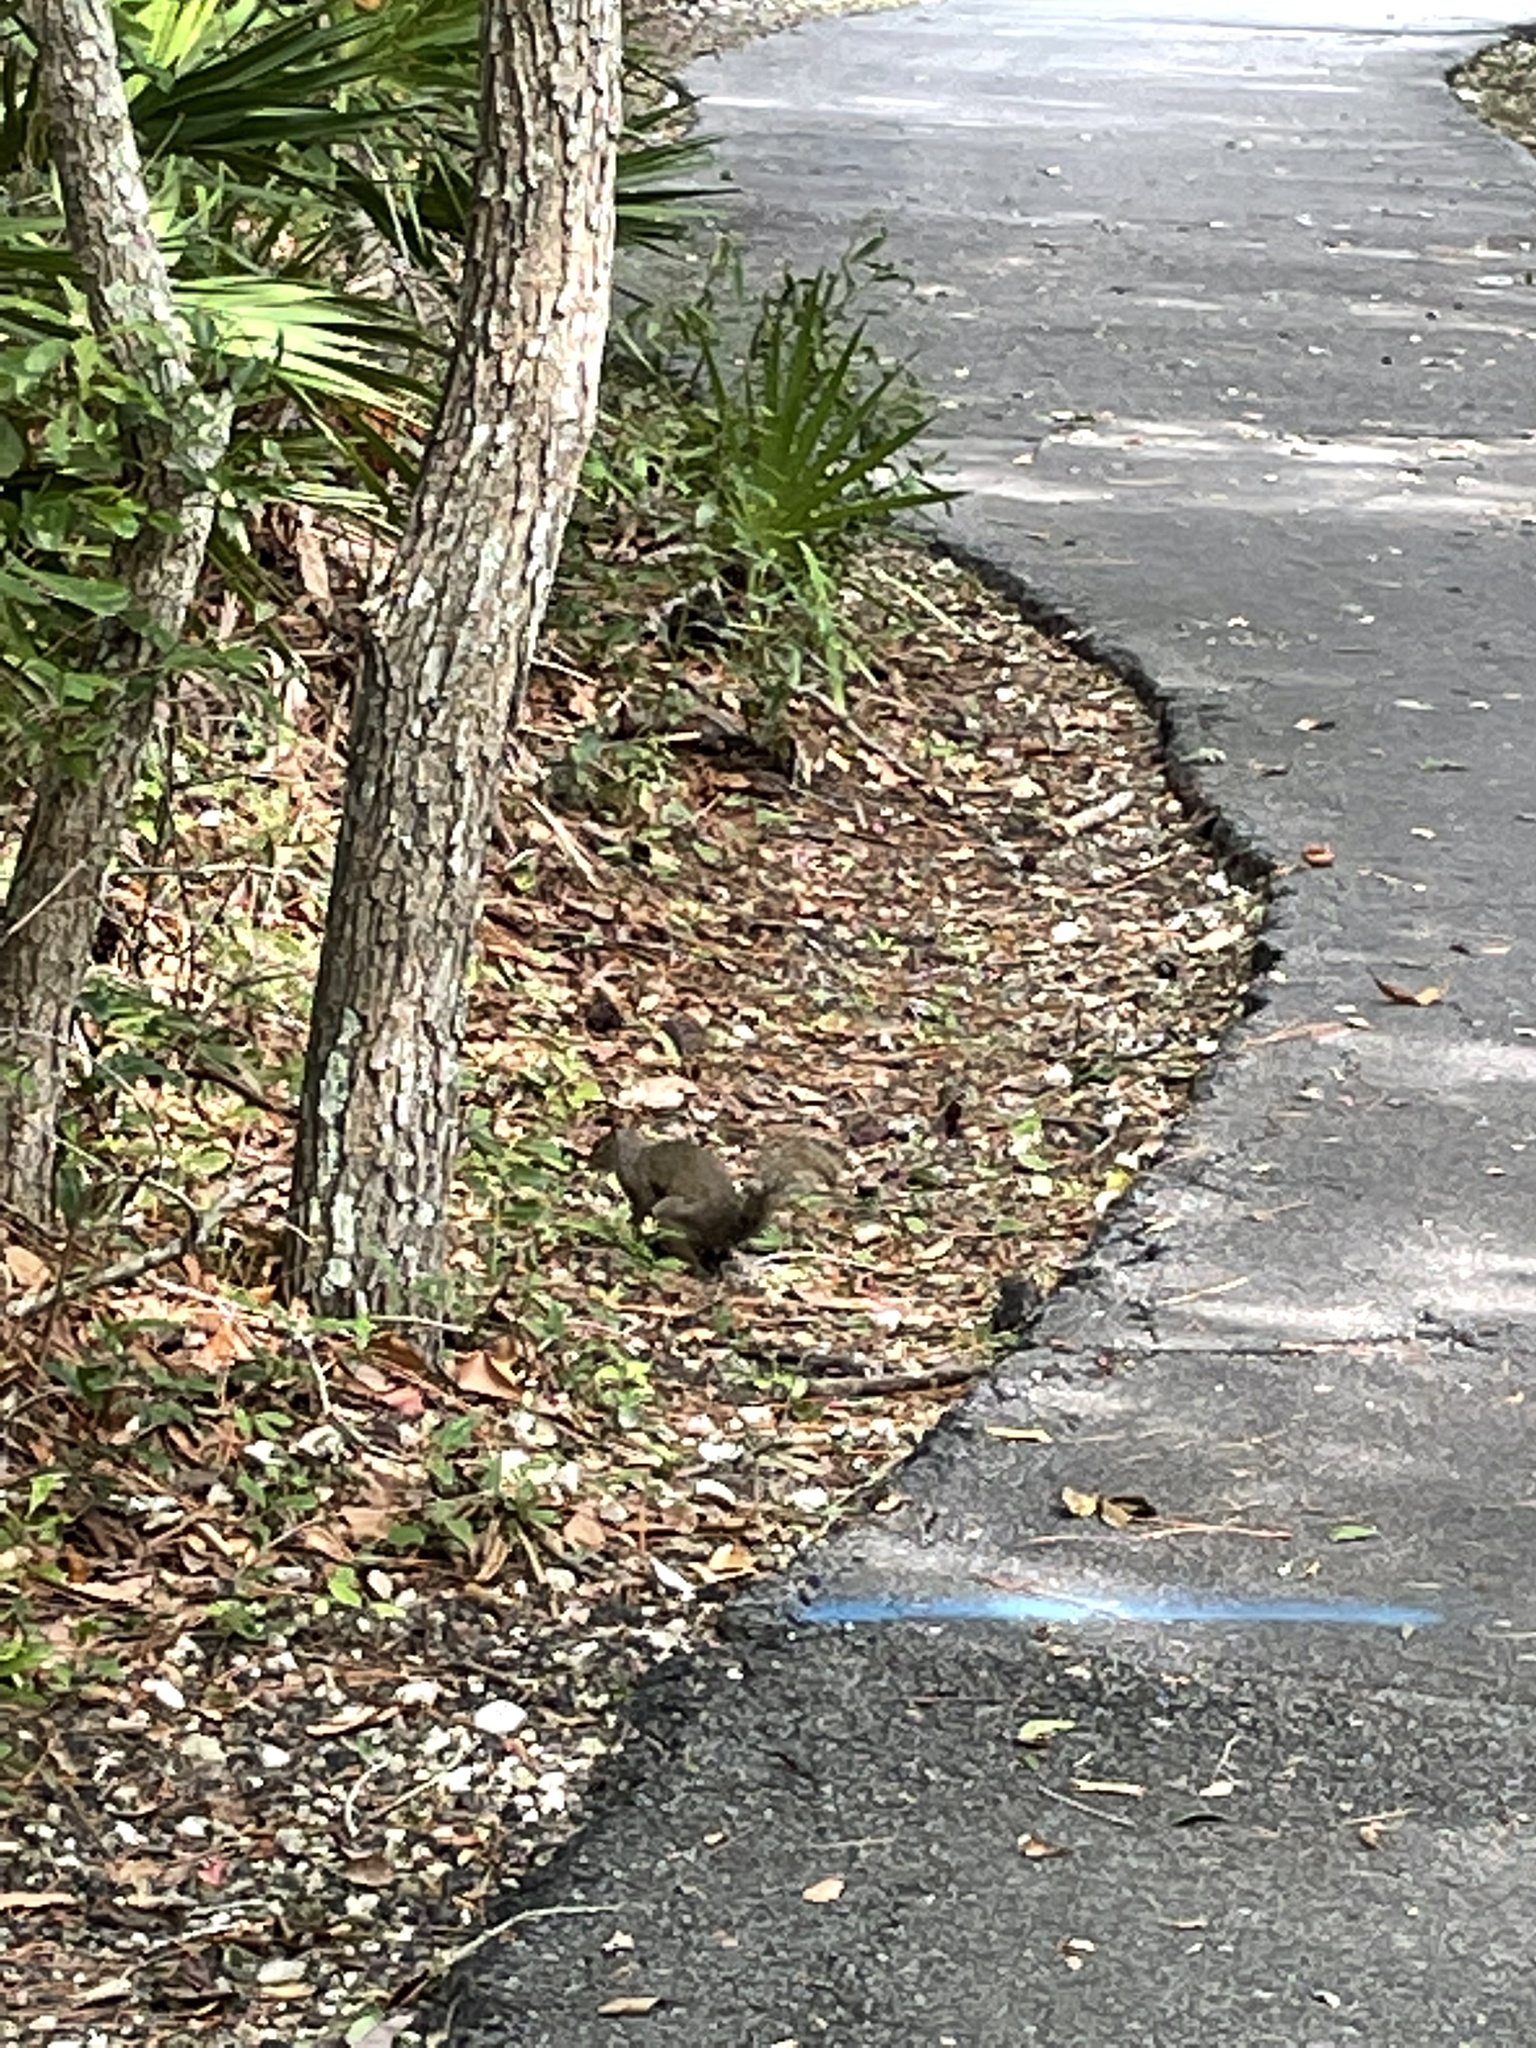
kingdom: Animalia
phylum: Chordata
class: Mammalia
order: Rodentia
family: Sciuridae
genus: Sciurus
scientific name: Sciurus carolinensis
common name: Eastern gray squirrel
